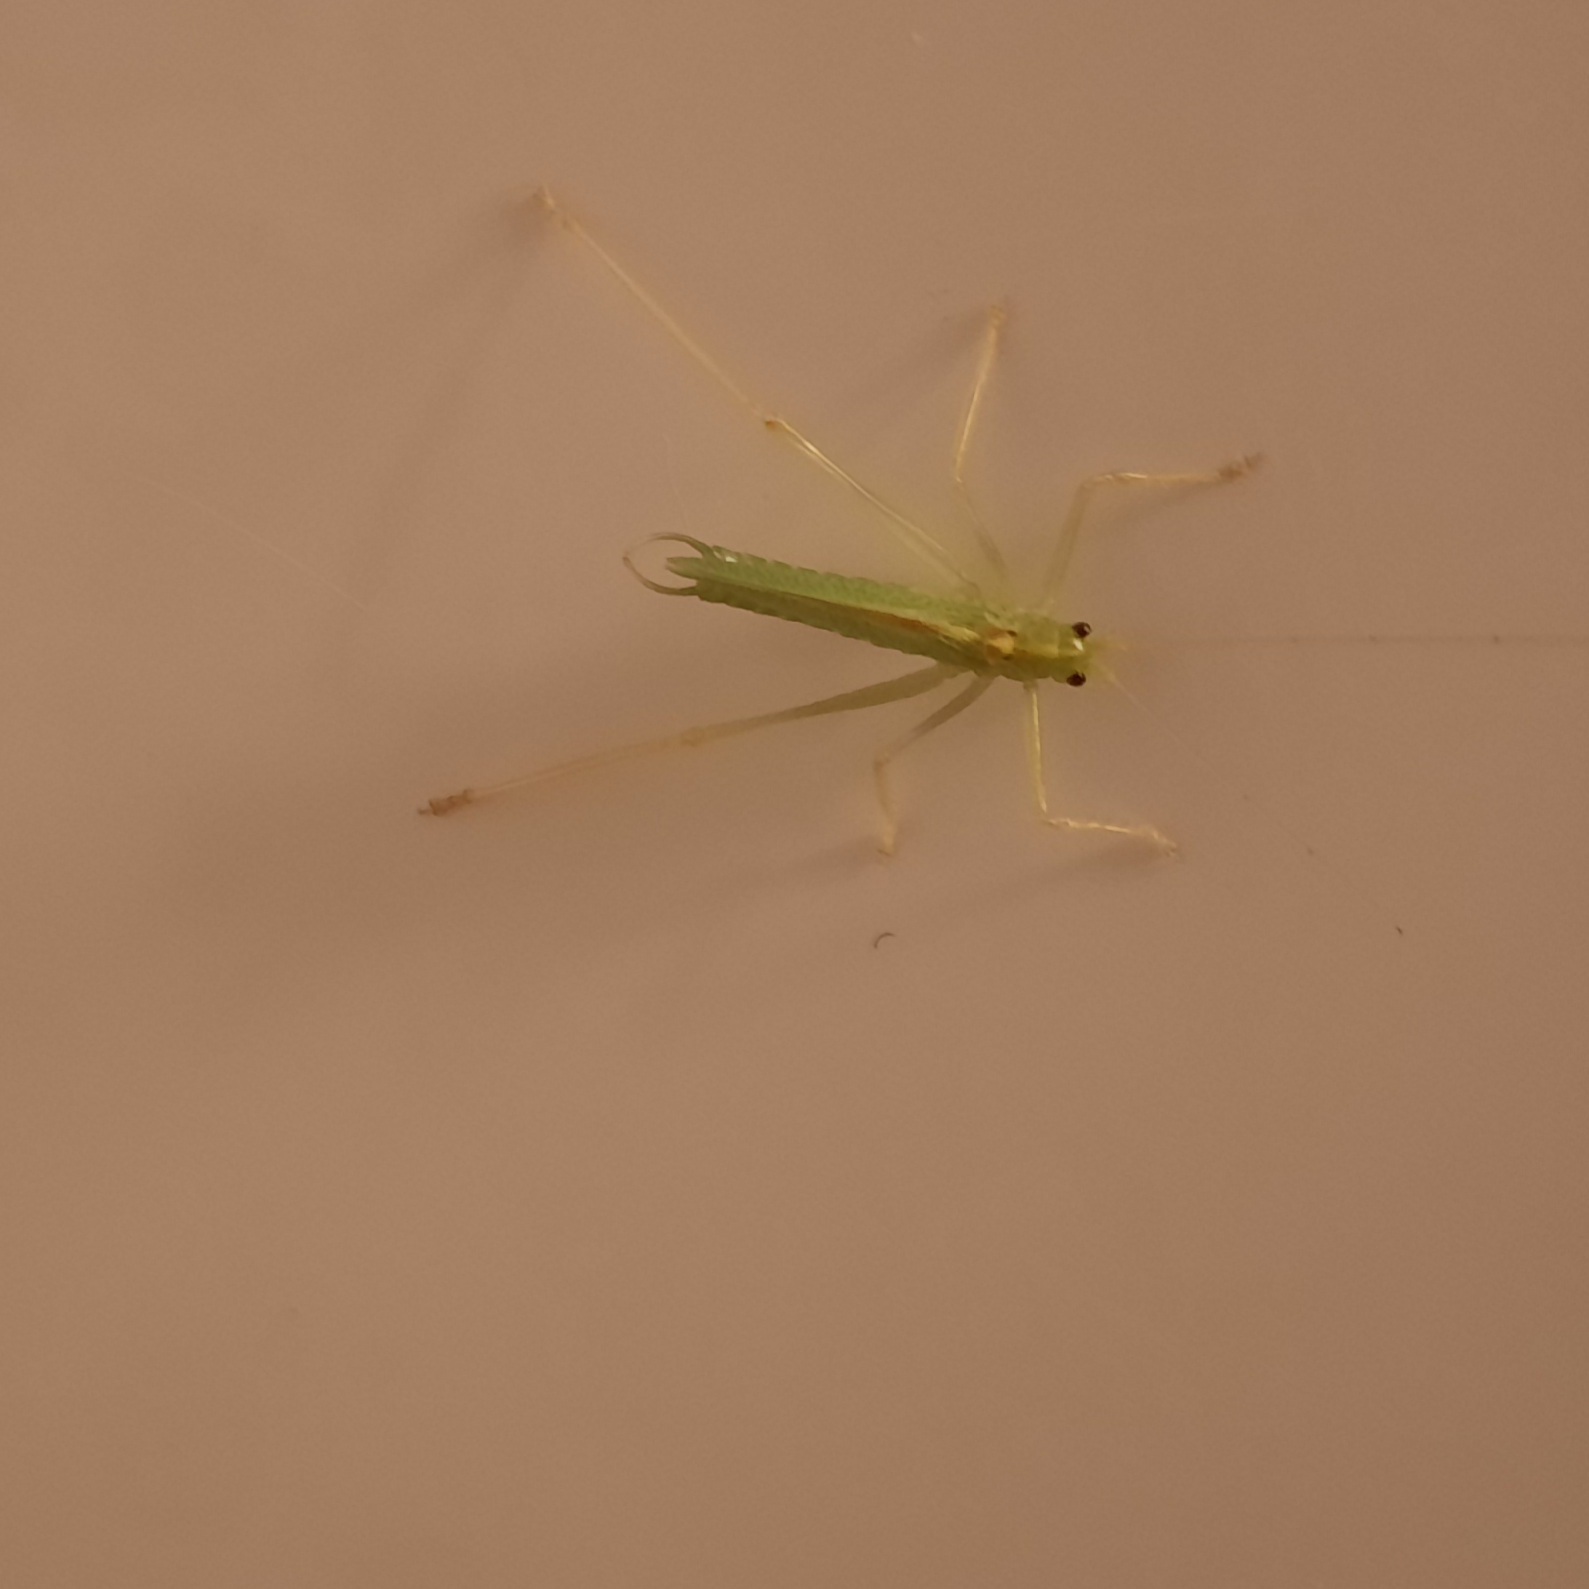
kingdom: Animalia
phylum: Arthropoda
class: Insecta
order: Orthoptera
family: Tettigoniidae
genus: Meconema
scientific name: Meconema thalassinum
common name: Oak bush-cricket
